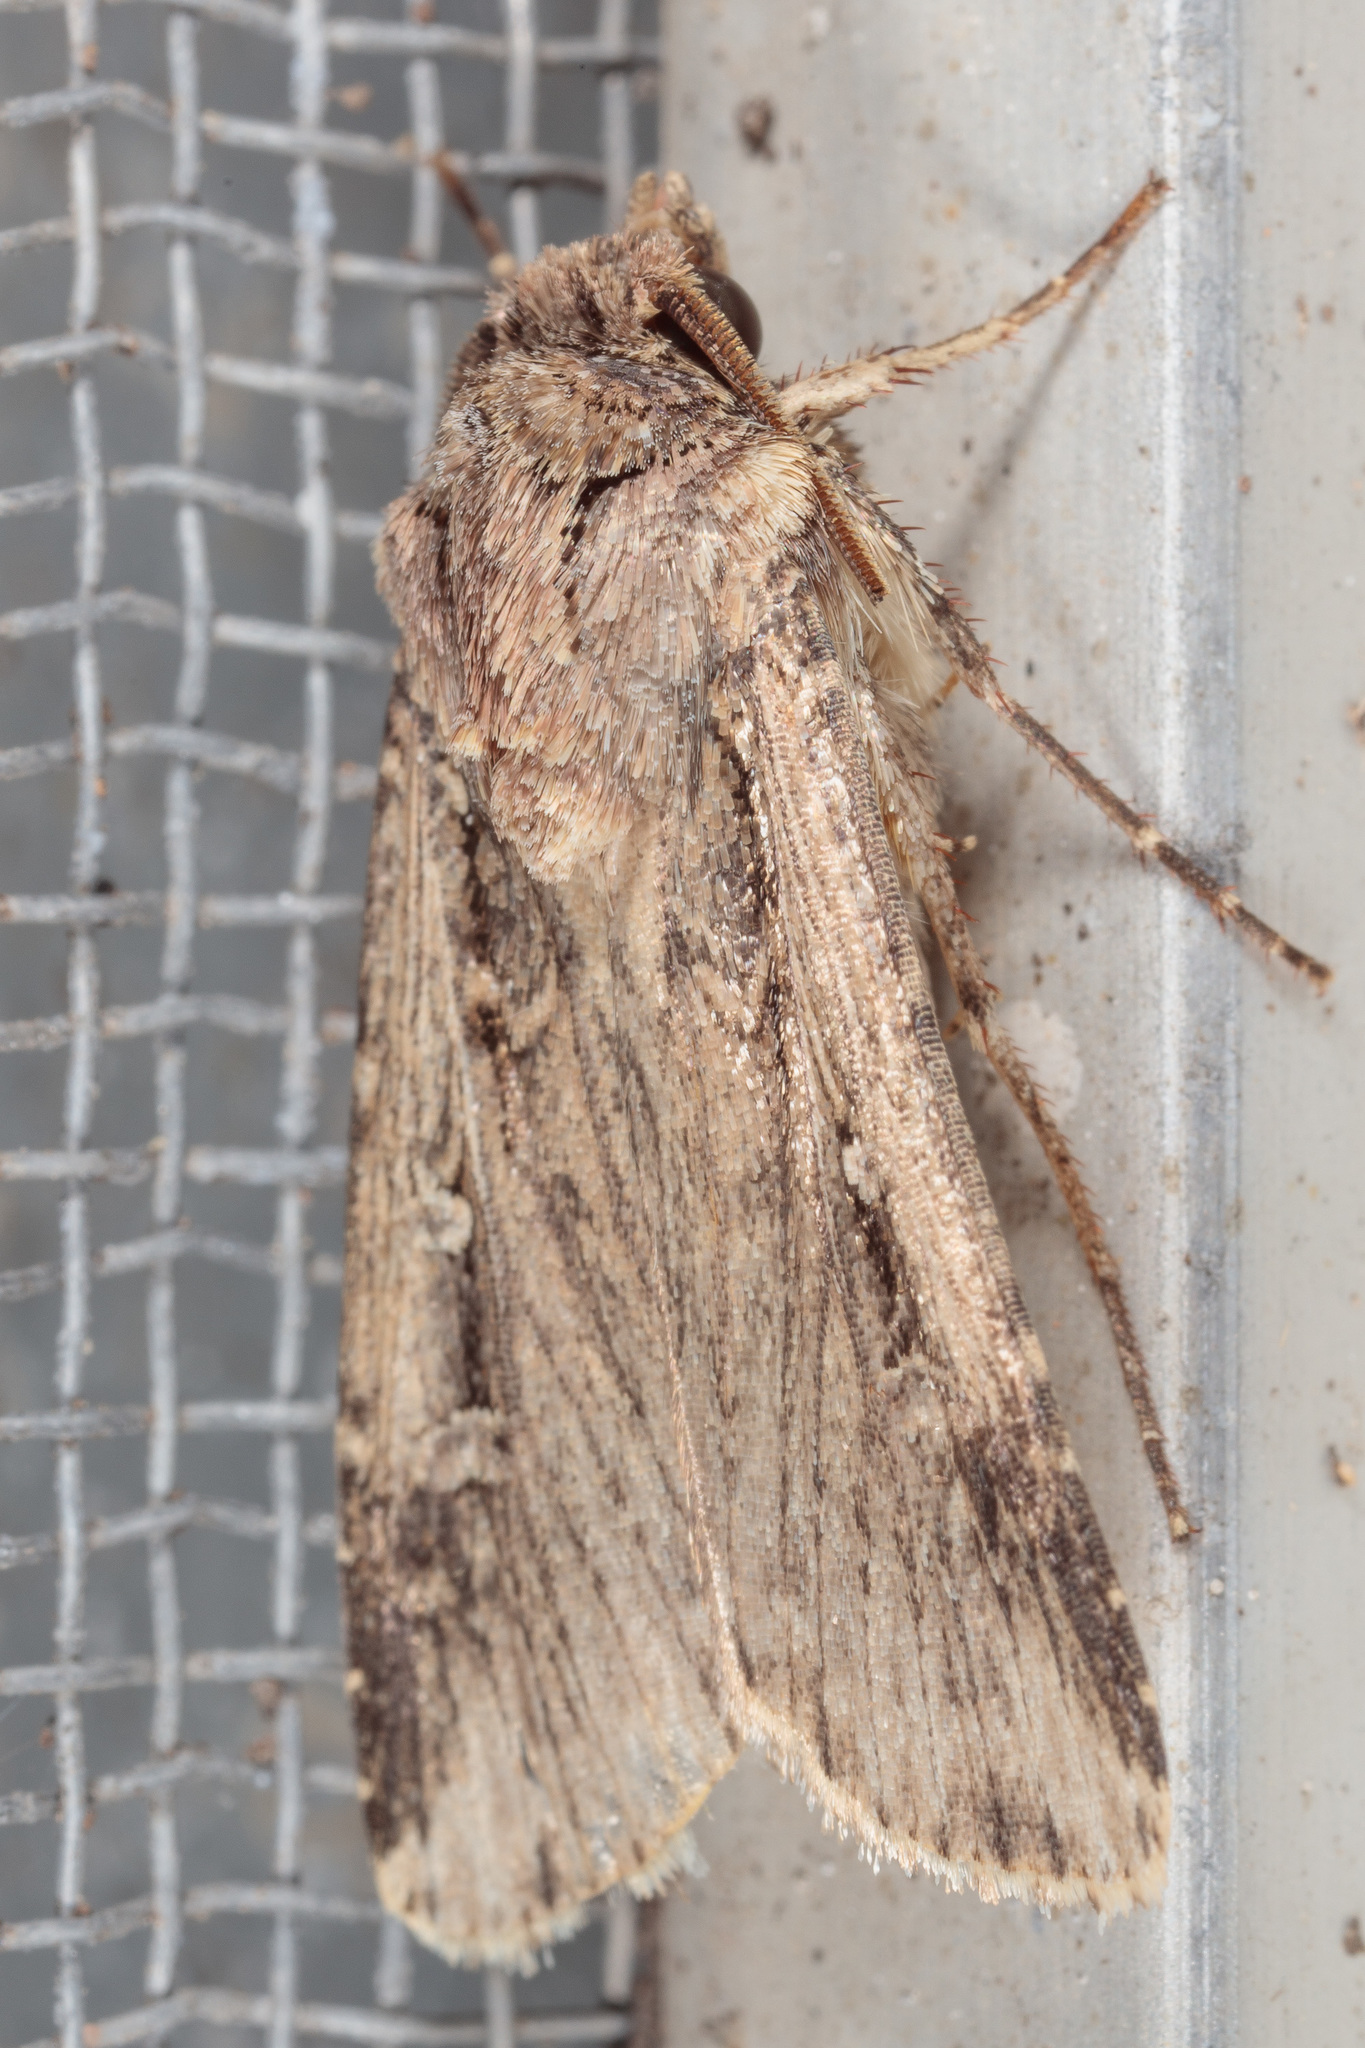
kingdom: Animalia
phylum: Arthropoda
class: Insecta
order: Lepidoptera
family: Noctuidae
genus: Feltia
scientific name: Feltia subterranea
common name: Granulate cutworm
